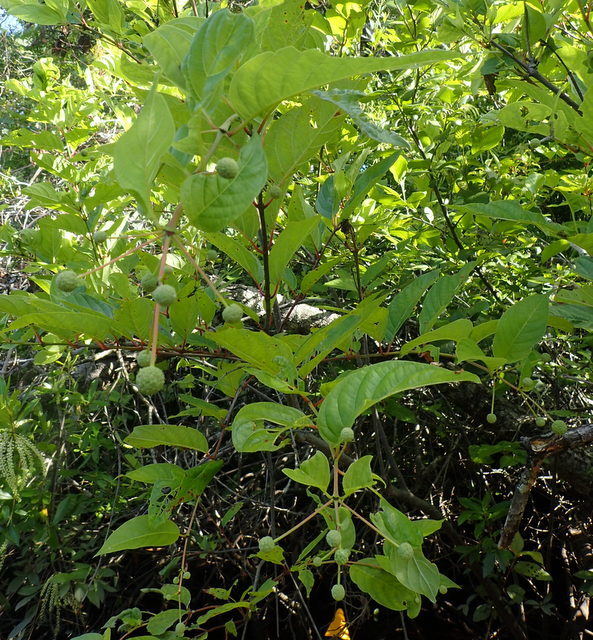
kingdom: Plantae
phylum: Tracheophyta
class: Magnoliopsida
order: Gentianales
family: Rubiaceae
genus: Cephalanthus
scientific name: Cephalanthus occidentalis
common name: Button-willow
